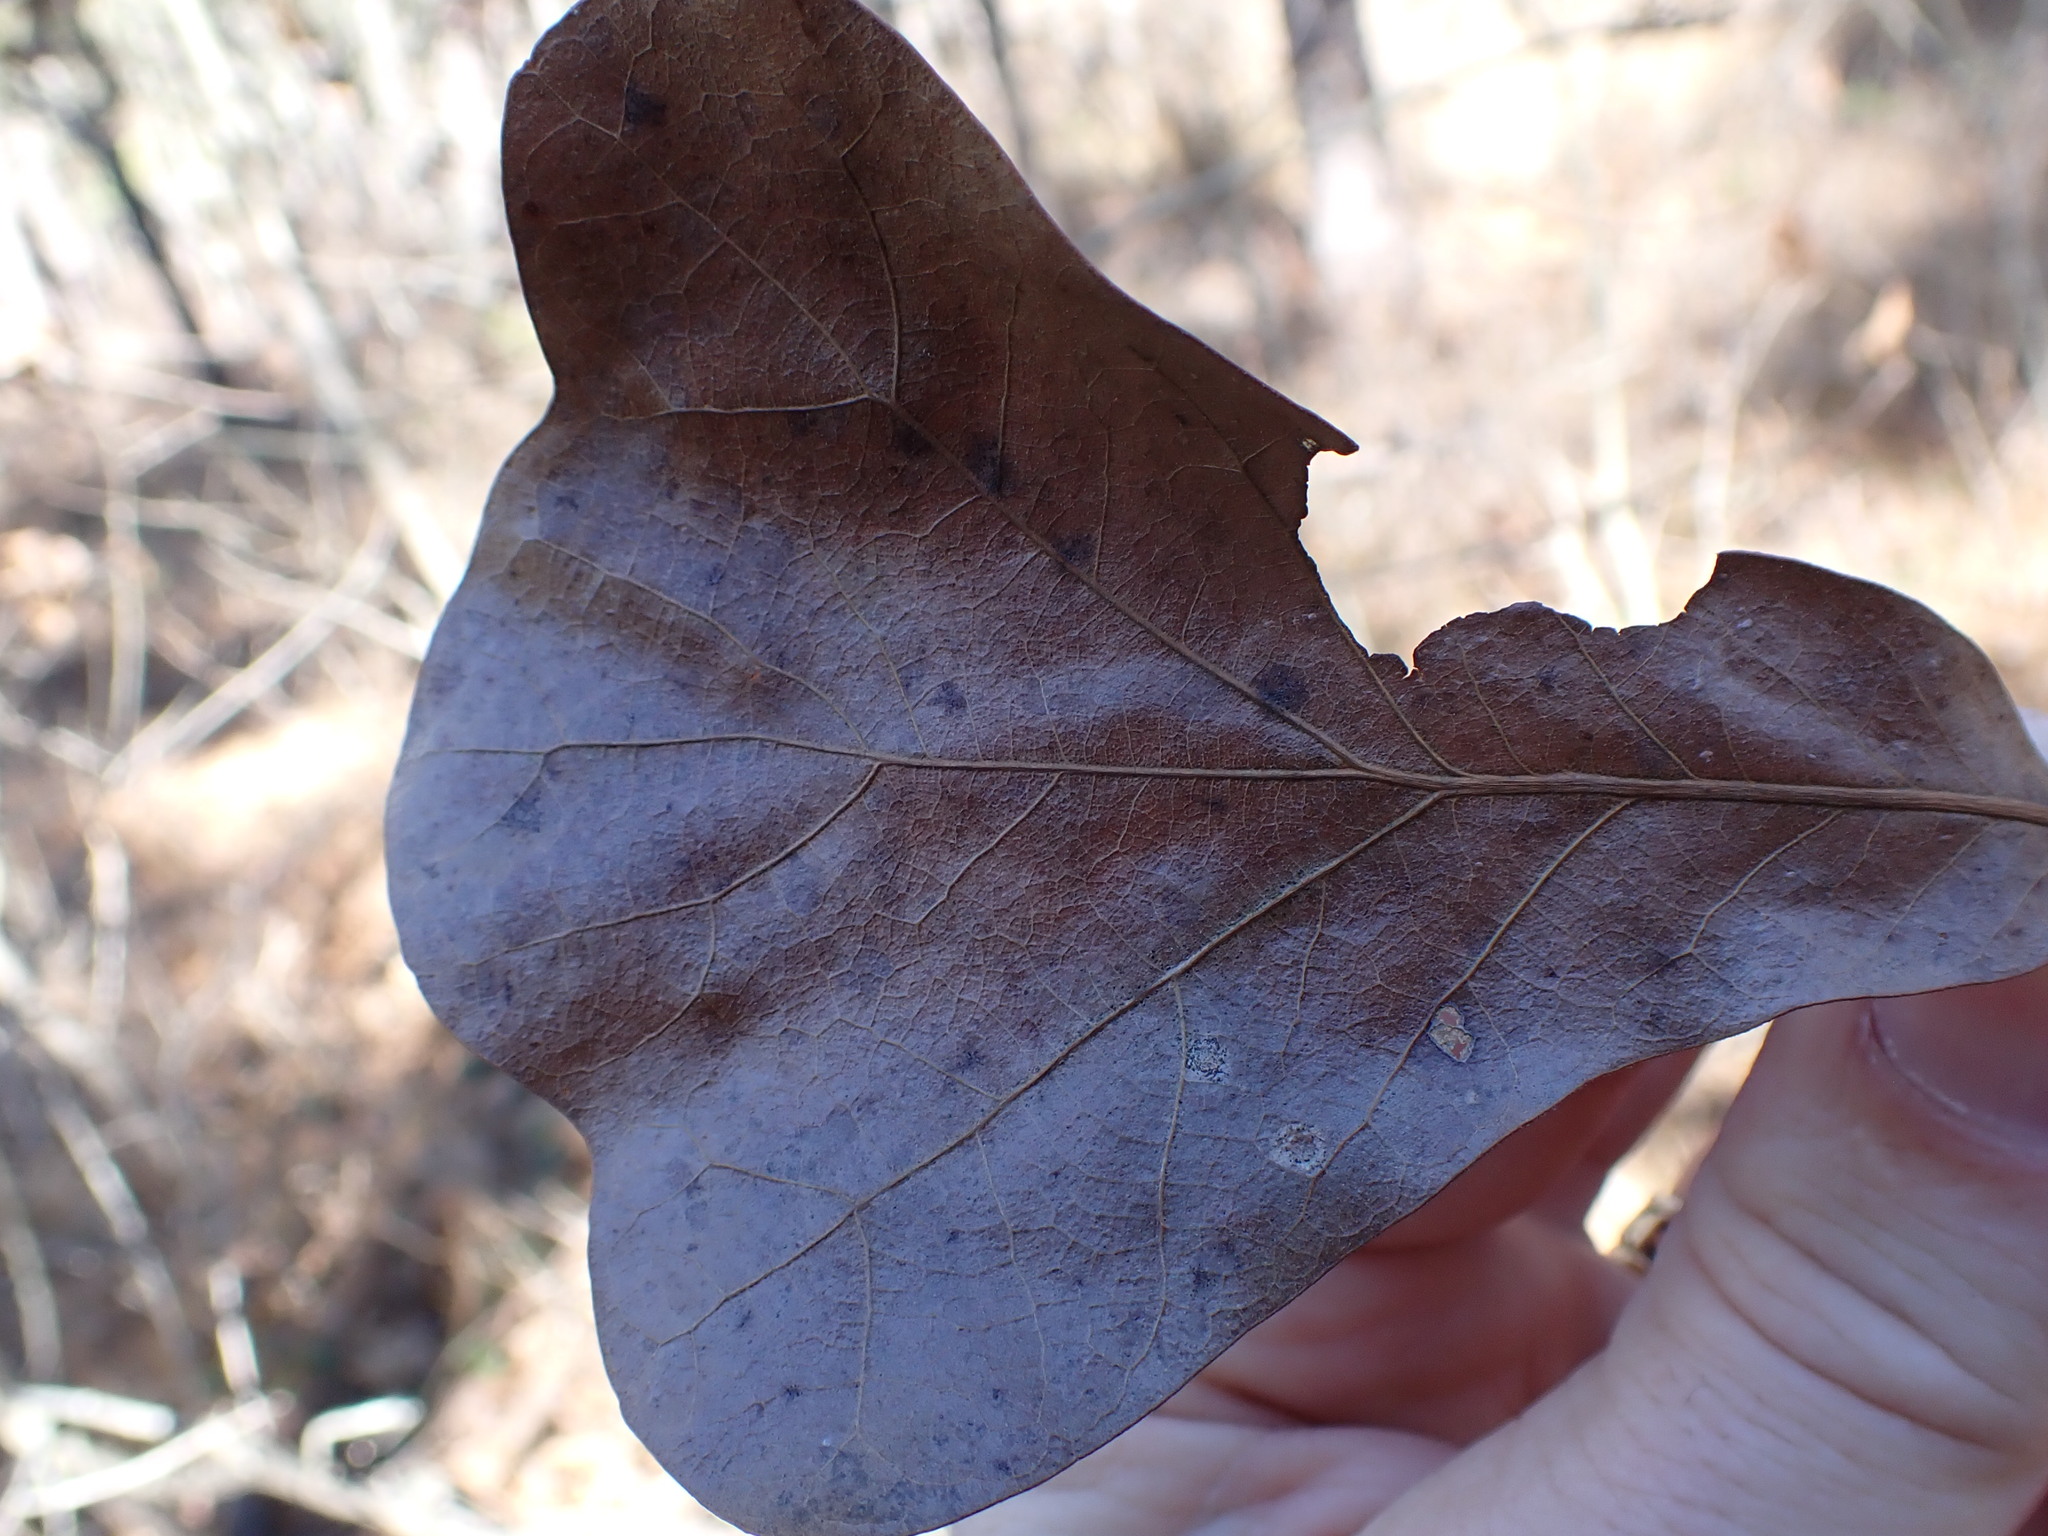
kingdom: Plantae
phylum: Tracheophyta
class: Magnoliopsida
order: Fagales
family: Fagaceae
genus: Quercus
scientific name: Quercus marilandica
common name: Blackjack oak
